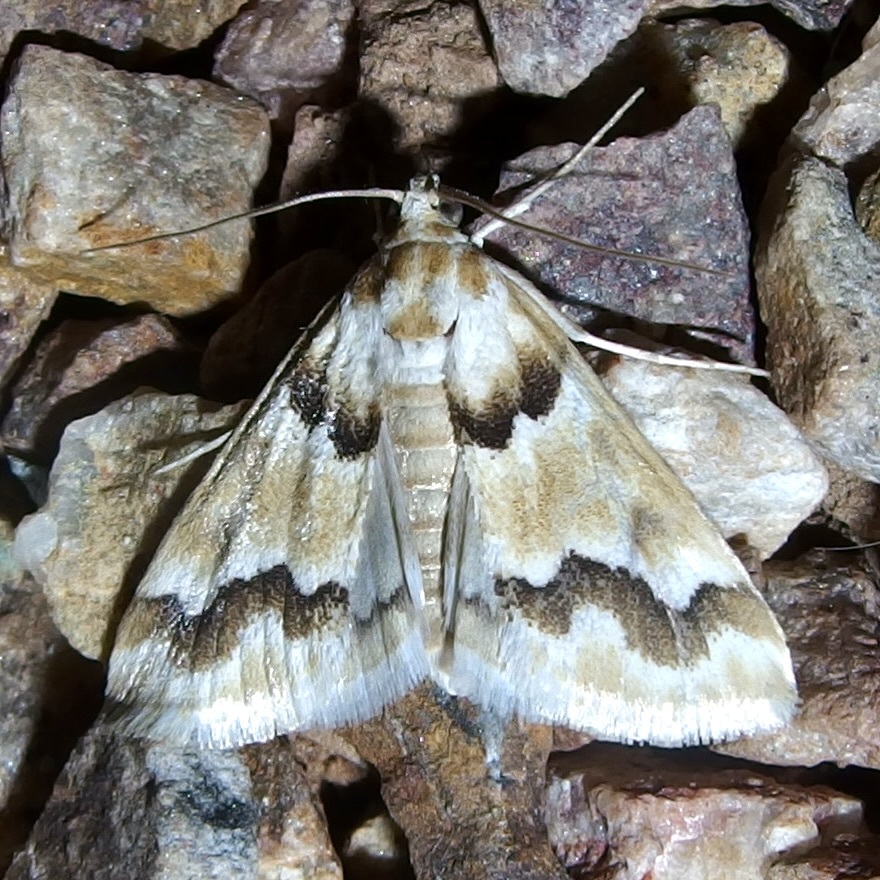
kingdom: Animalia
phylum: Arthropoda
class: Insecta
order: Lepidoptera
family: Crambidae
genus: Pseudoschinia
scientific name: Pseudoschinia elautalis
